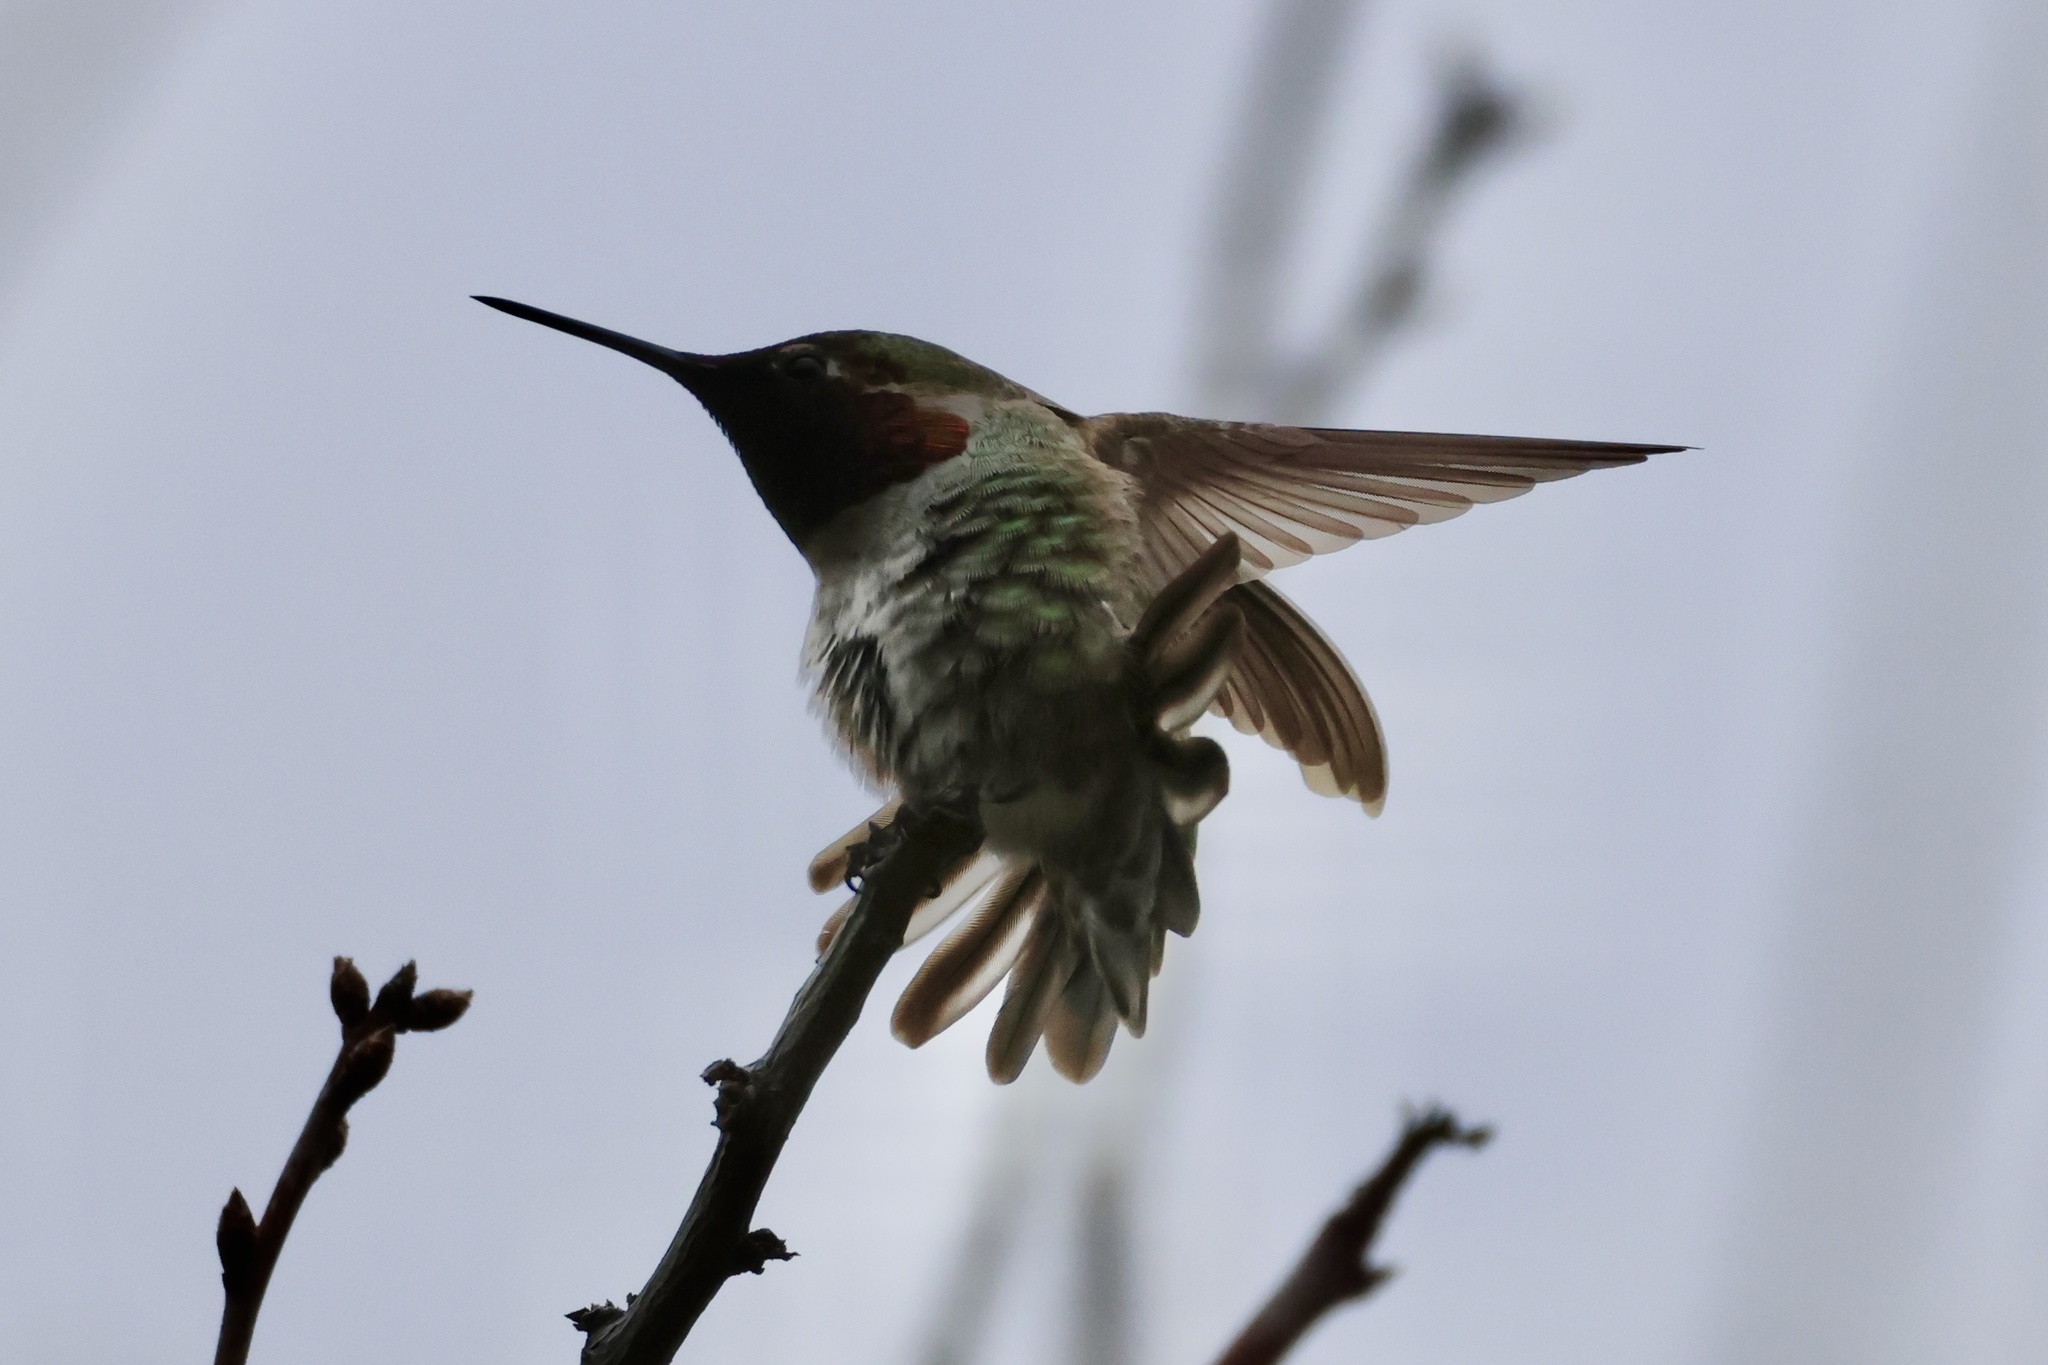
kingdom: Animalia
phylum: Chordata
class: Aves
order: Apodiformes
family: Trochilidae
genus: Calypte
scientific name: Calypte anna
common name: Anna's hummingbird
